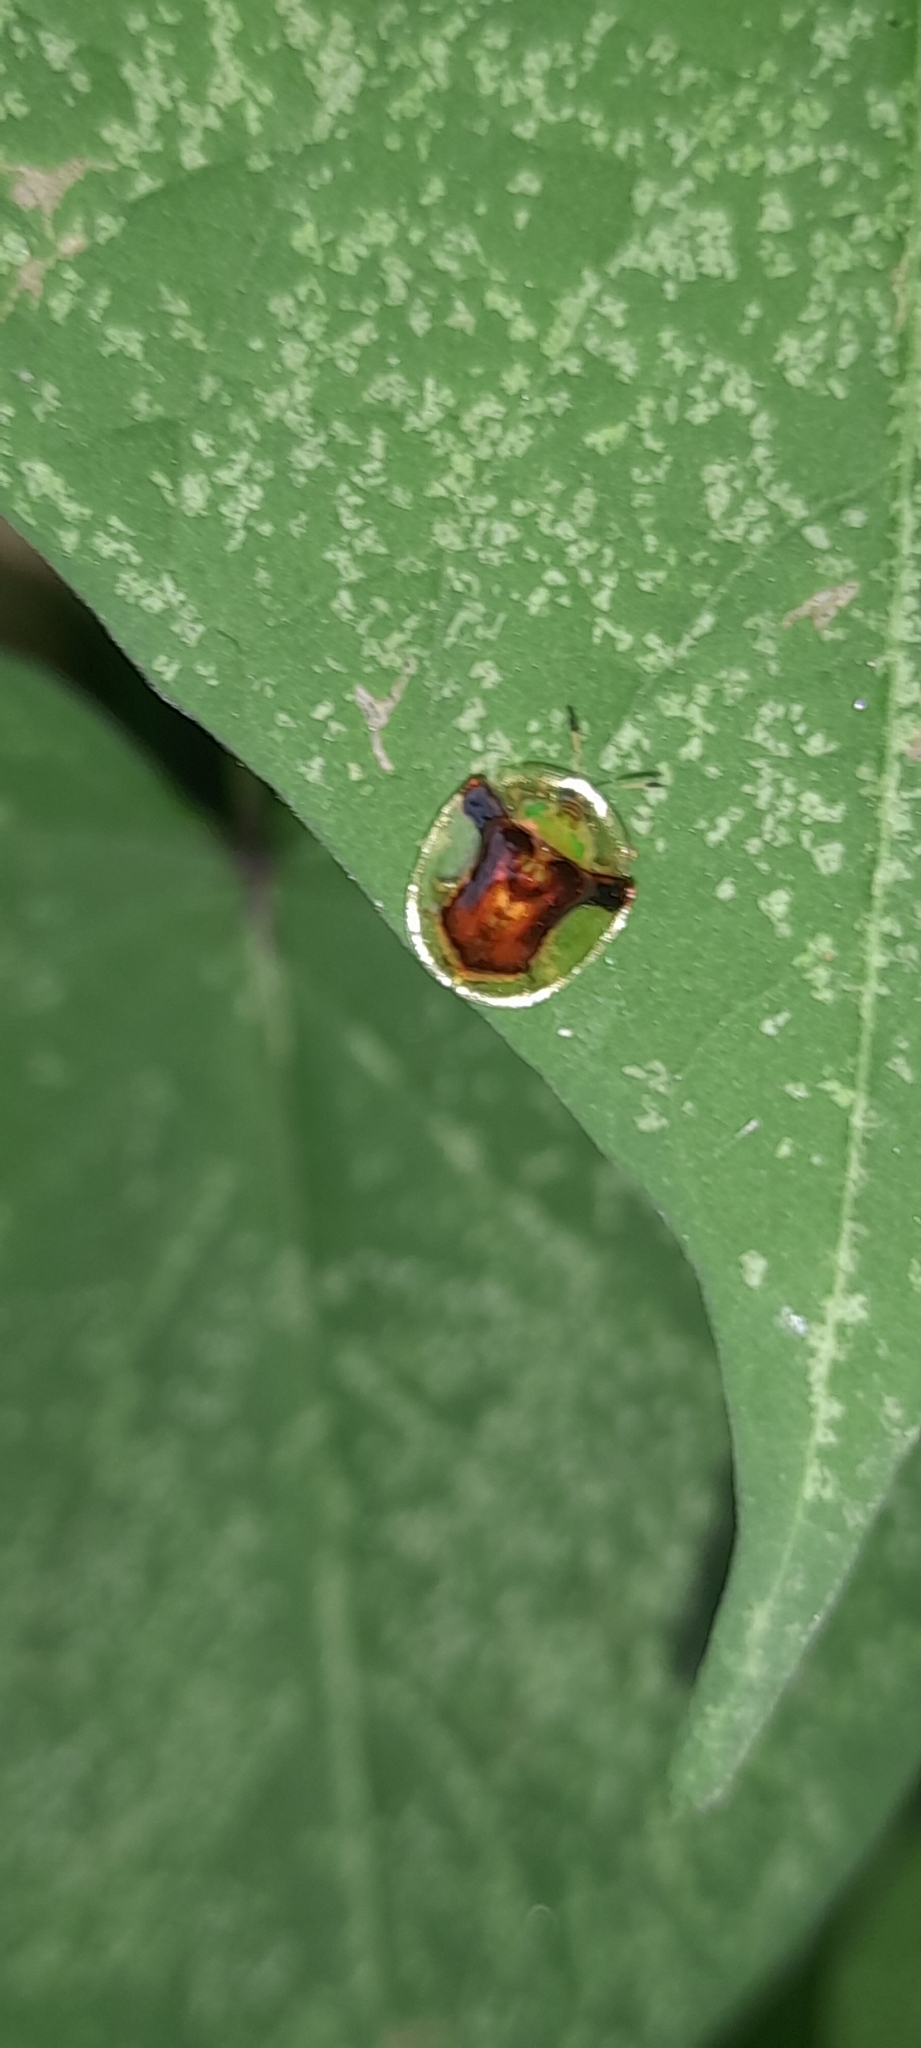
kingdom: Animalia
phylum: Arthropoda
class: Insecta
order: Coleoptera
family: Chrysomelidae
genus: Aspidimorpha
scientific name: Aspidimorpha furcata
